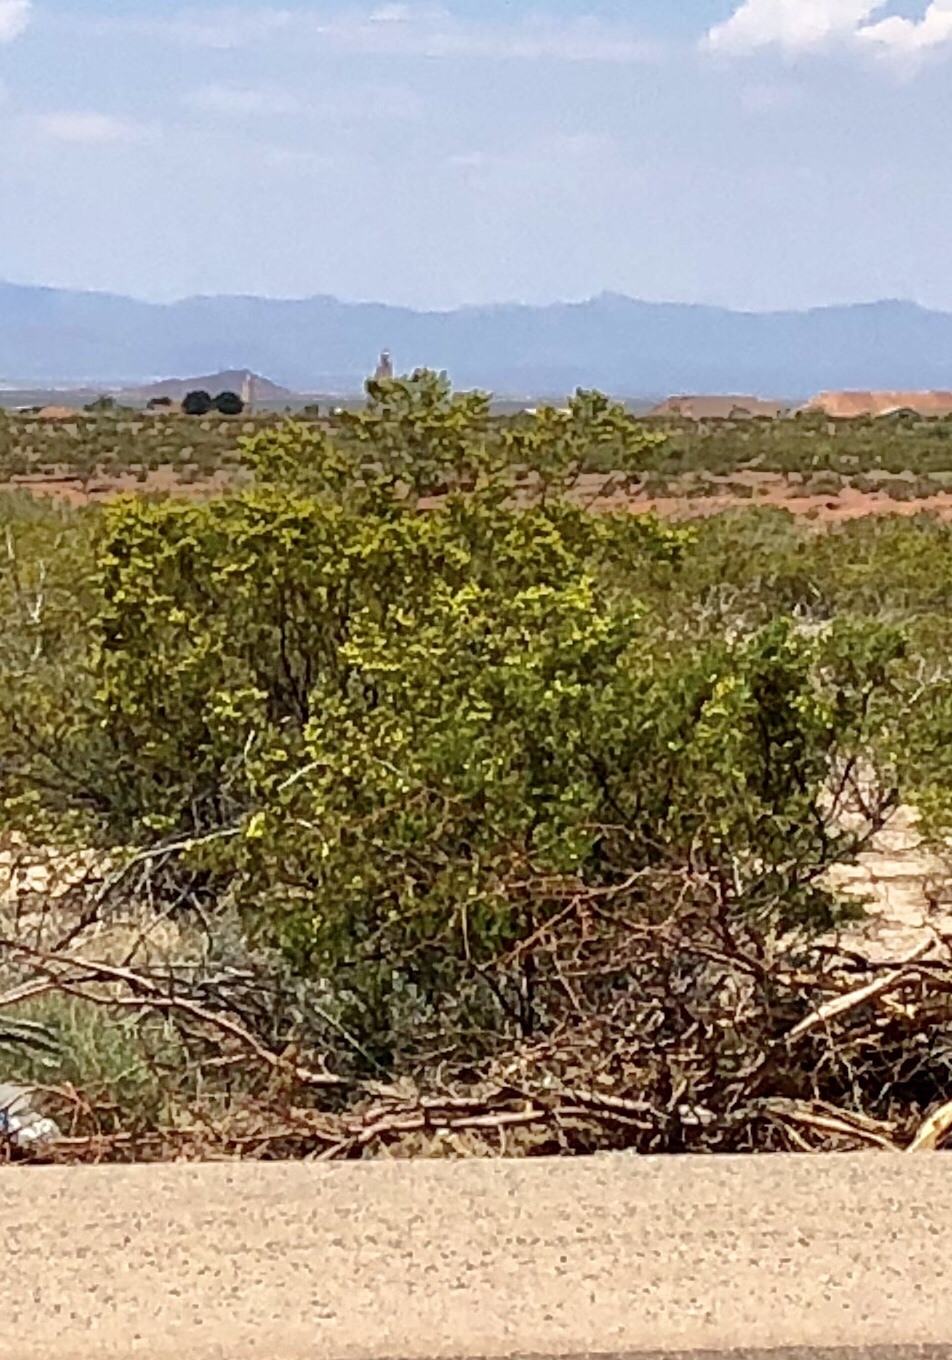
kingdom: Plantae
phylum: Tracheophyta
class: Magnoliopsida
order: Zygophyllales
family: Zygophyllaceae
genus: Larrea
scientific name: Larrea tridentata
